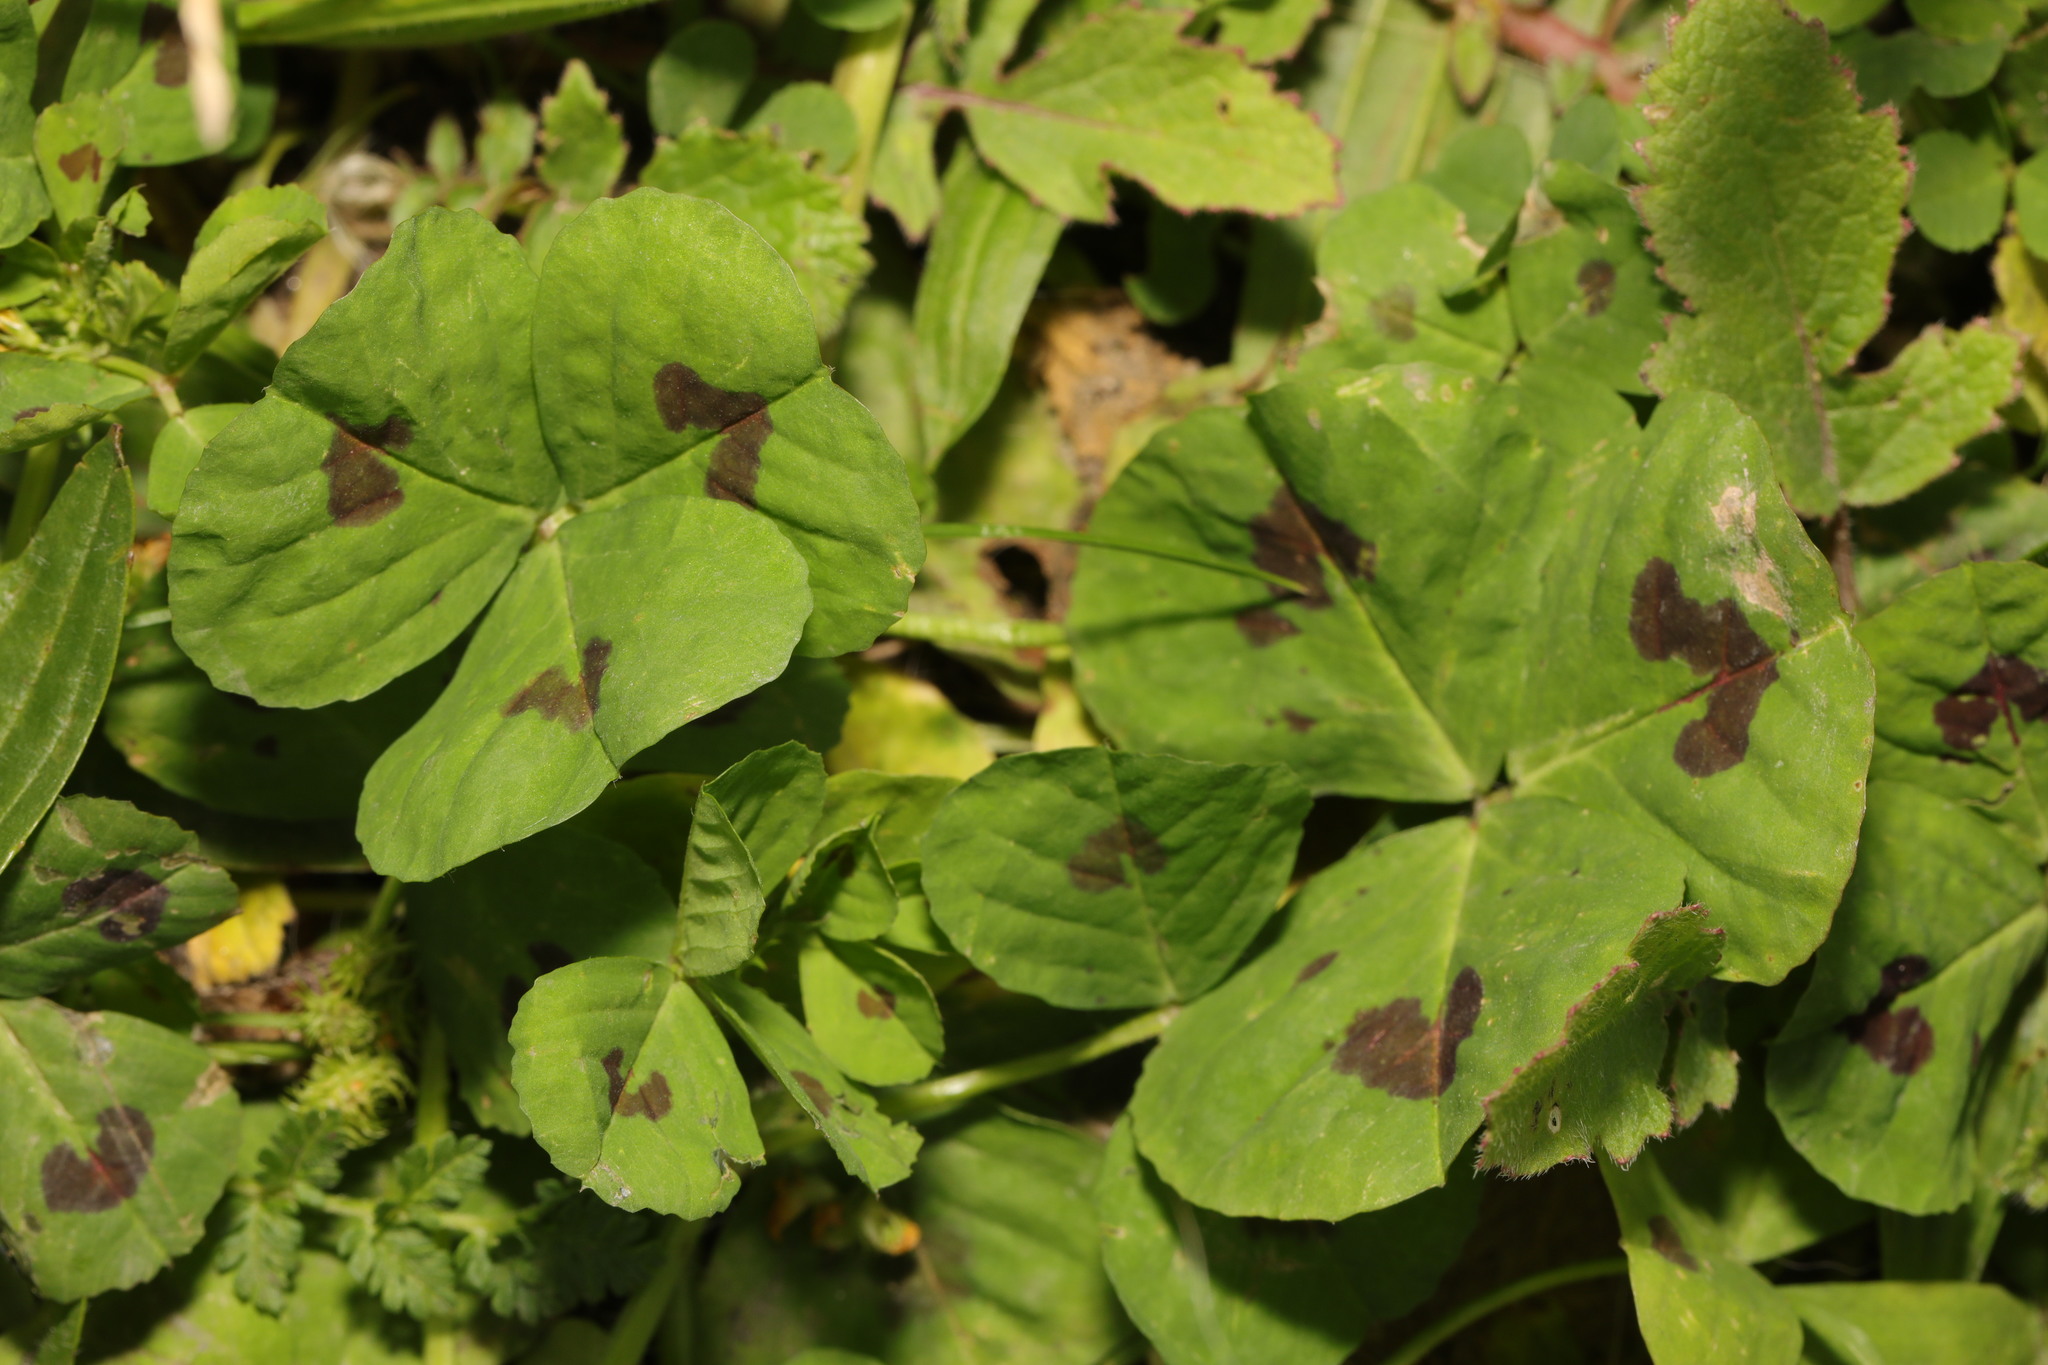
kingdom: Plantae
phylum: Tracheophyta
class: Magnoliopsida
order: Fabales
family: Fabaceae
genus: Medicago
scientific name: Medicago arabica
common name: Spotted medick
